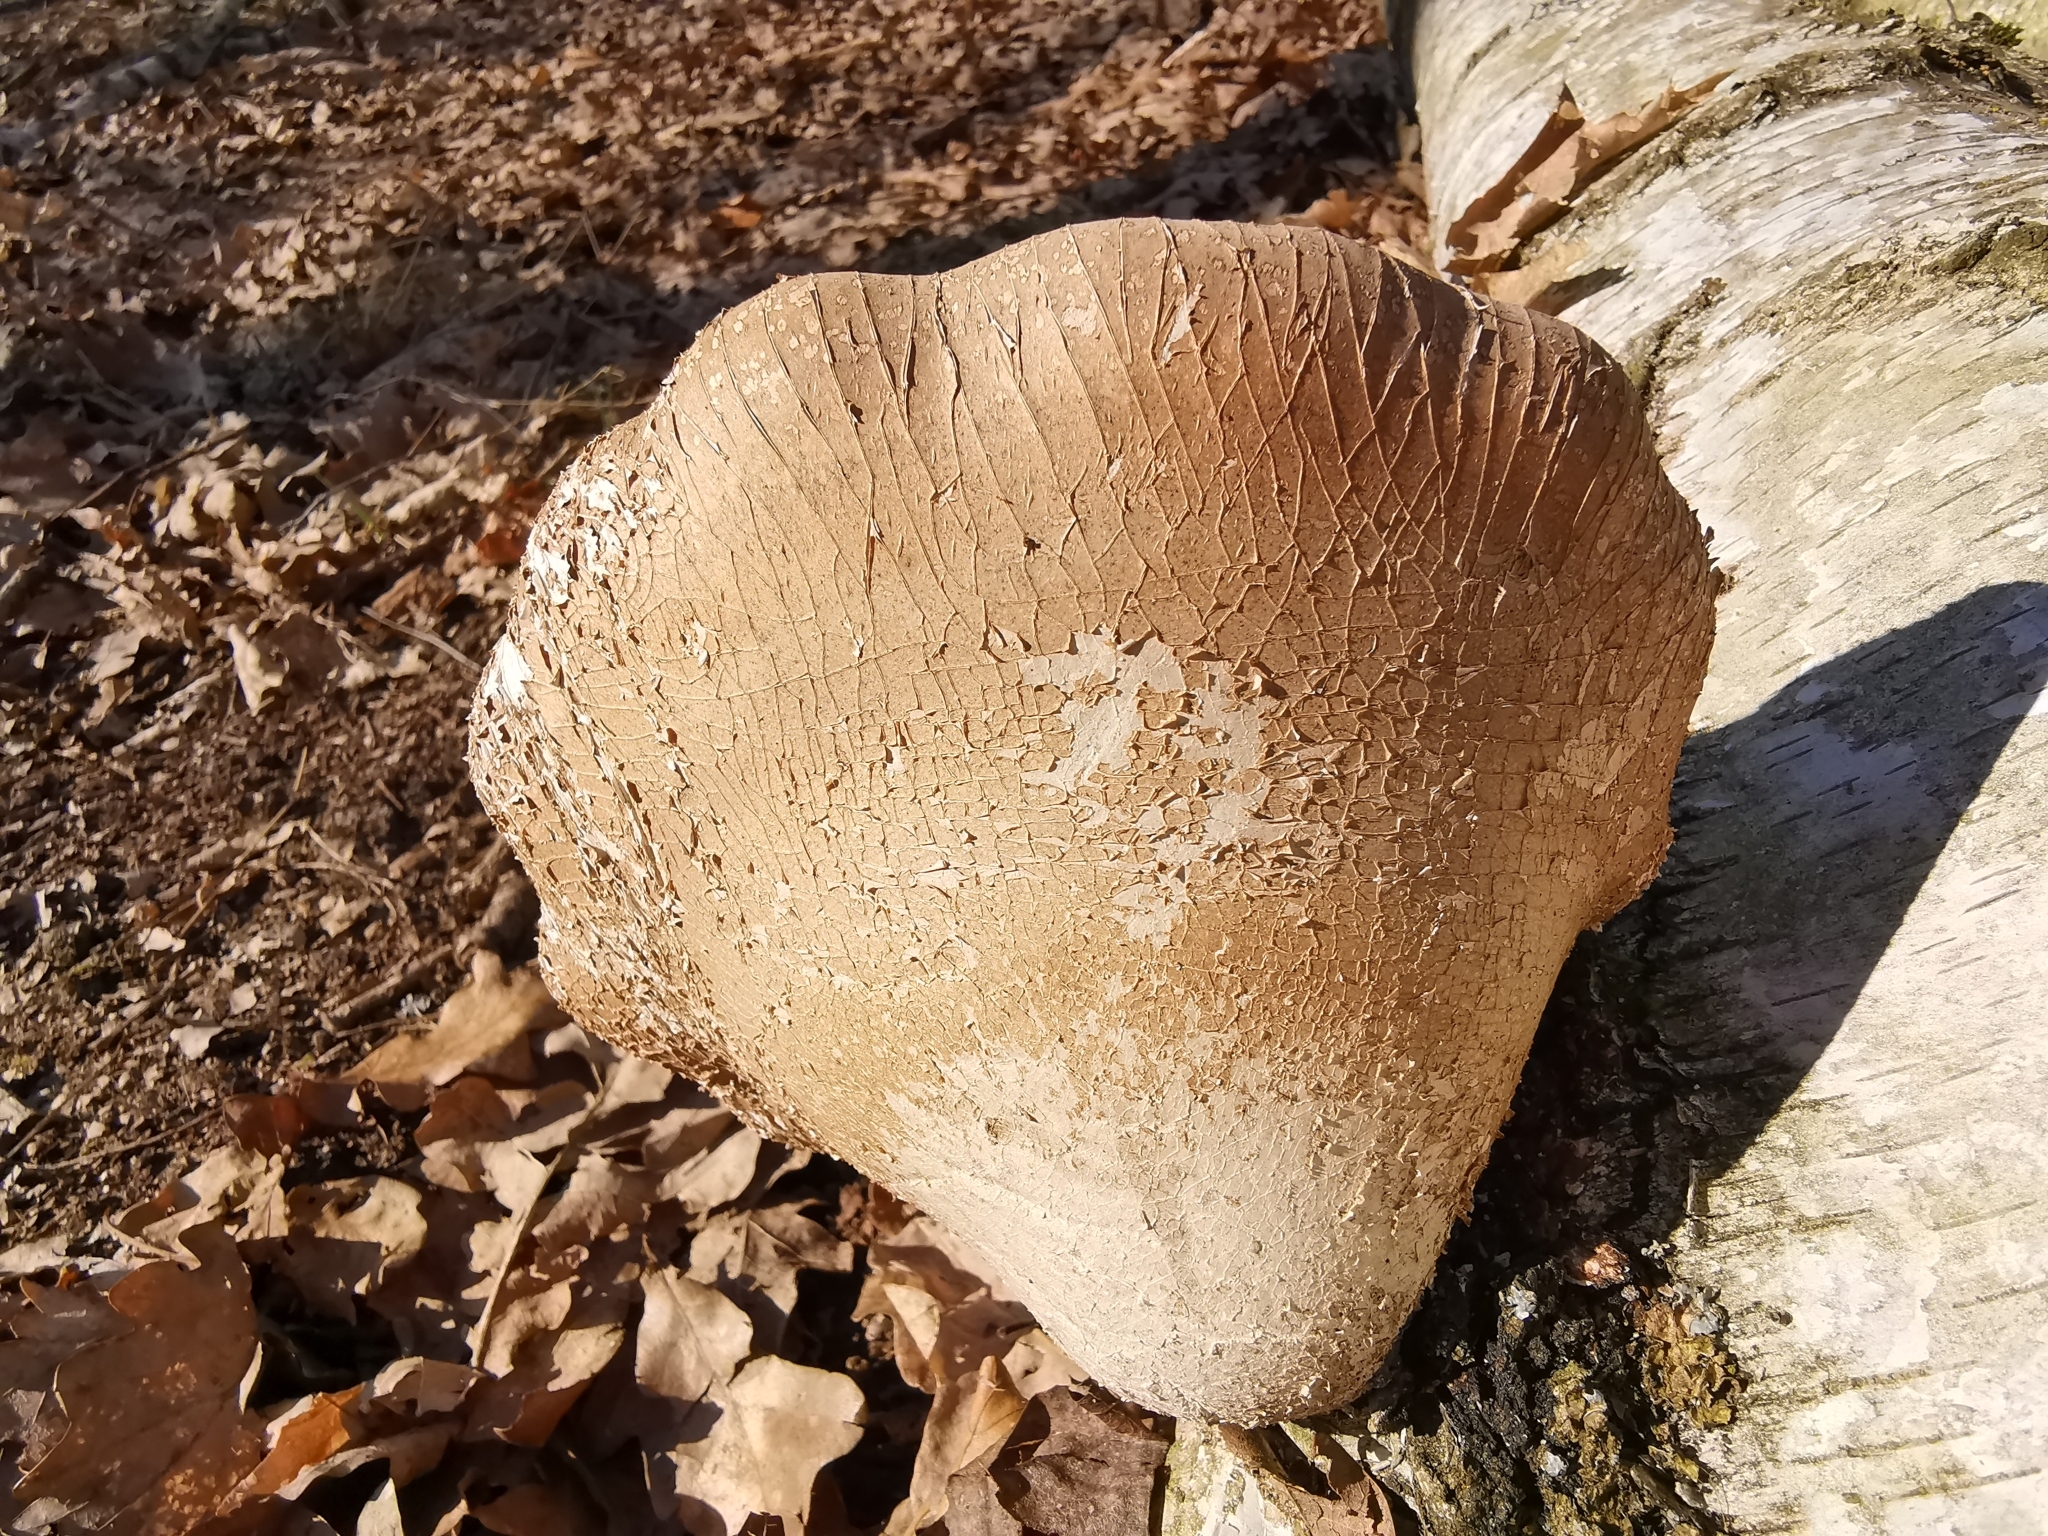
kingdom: Fungi
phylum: Basidiomycota
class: Agaricomycetes
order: Polyporales
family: Fomitopsidaceae
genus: Fomitopsis
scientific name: Fomitopsis betulina
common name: Birch polypore
